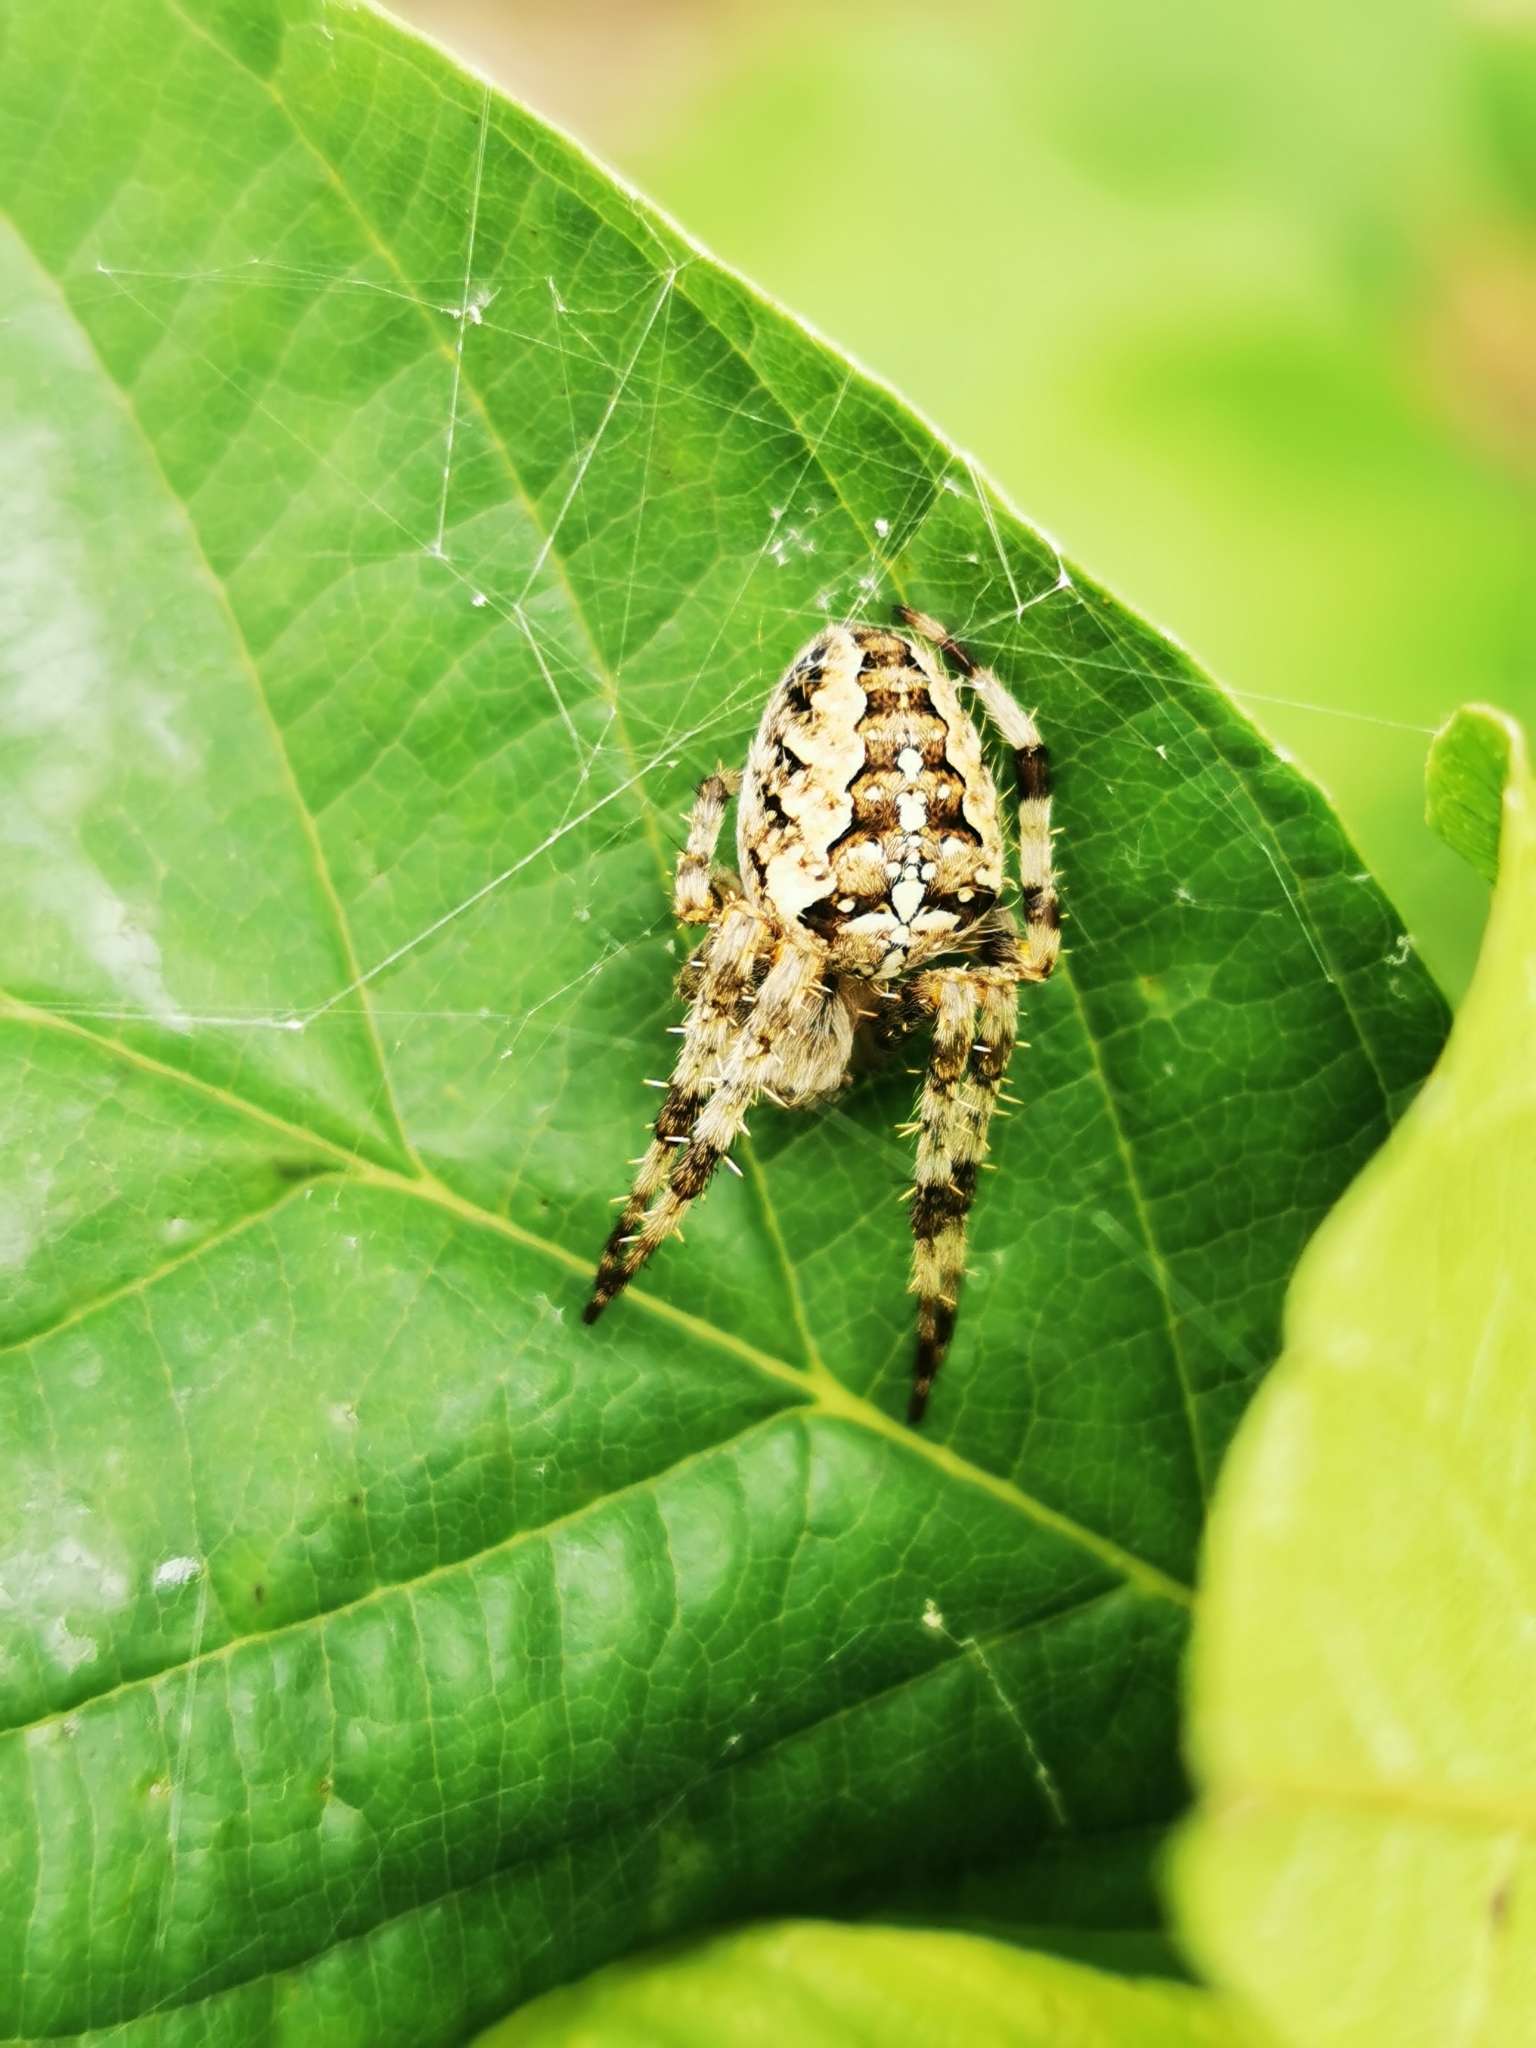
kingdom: Animalia
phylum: Arthropoda
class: Arachnida
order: Araneae
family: Araneidae
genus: Araneus
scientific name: Araneus diadematus
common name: Cross orbweaver
